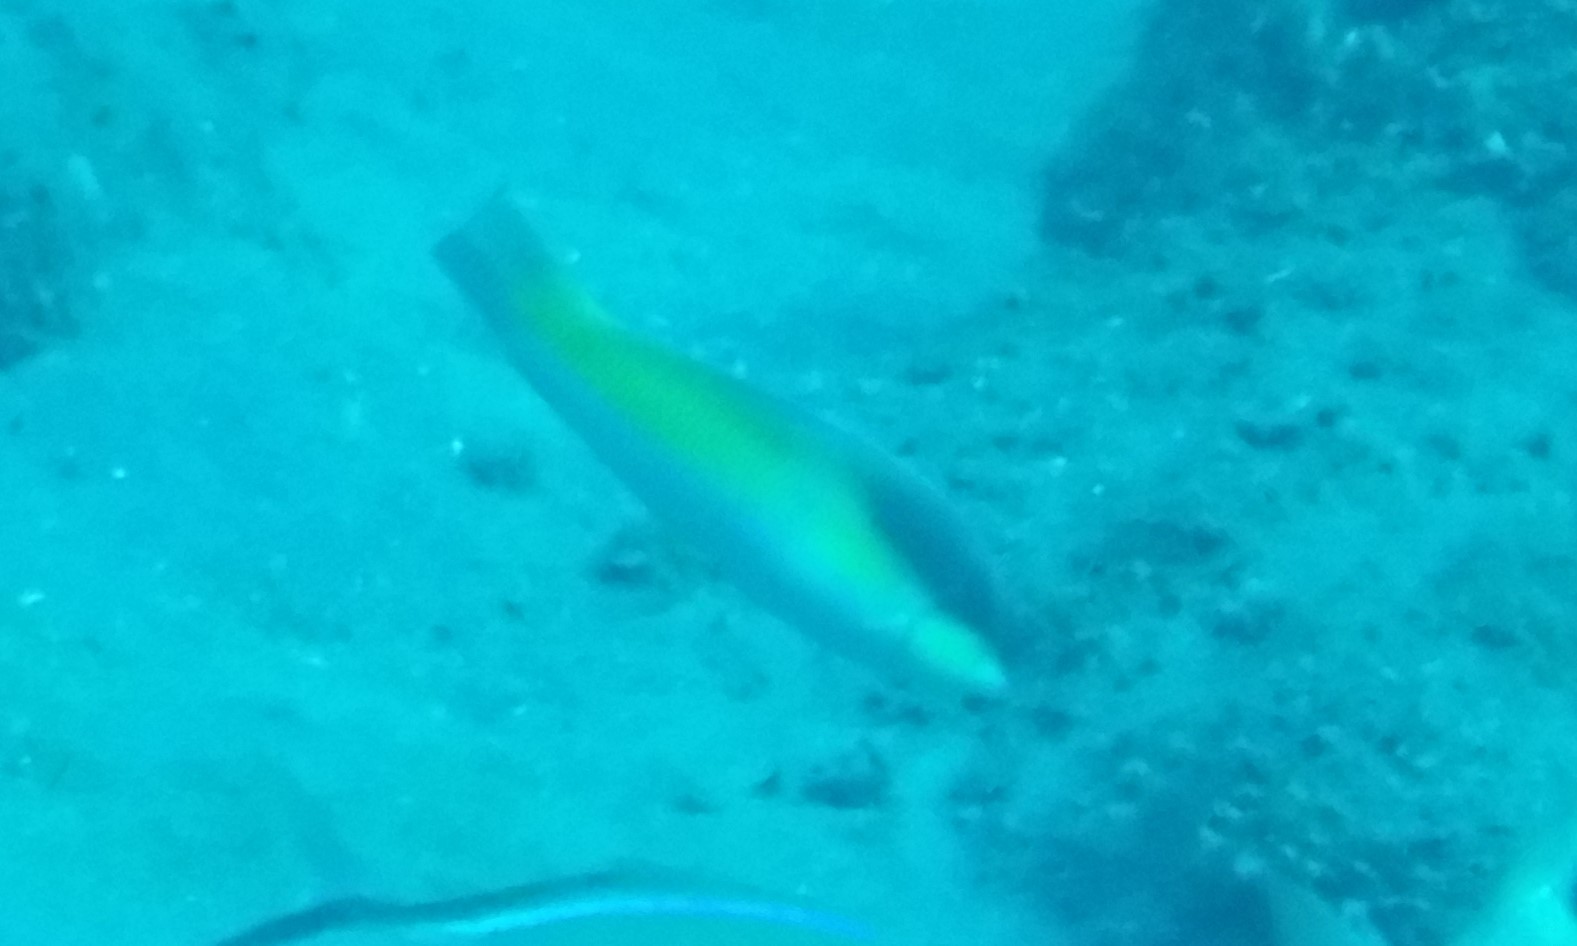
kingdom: Animalia
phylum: Chordata
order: Perciformes
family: Serranidae
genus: Cephalopholis
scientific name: Cephalopholis fulva
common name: Butterfish
